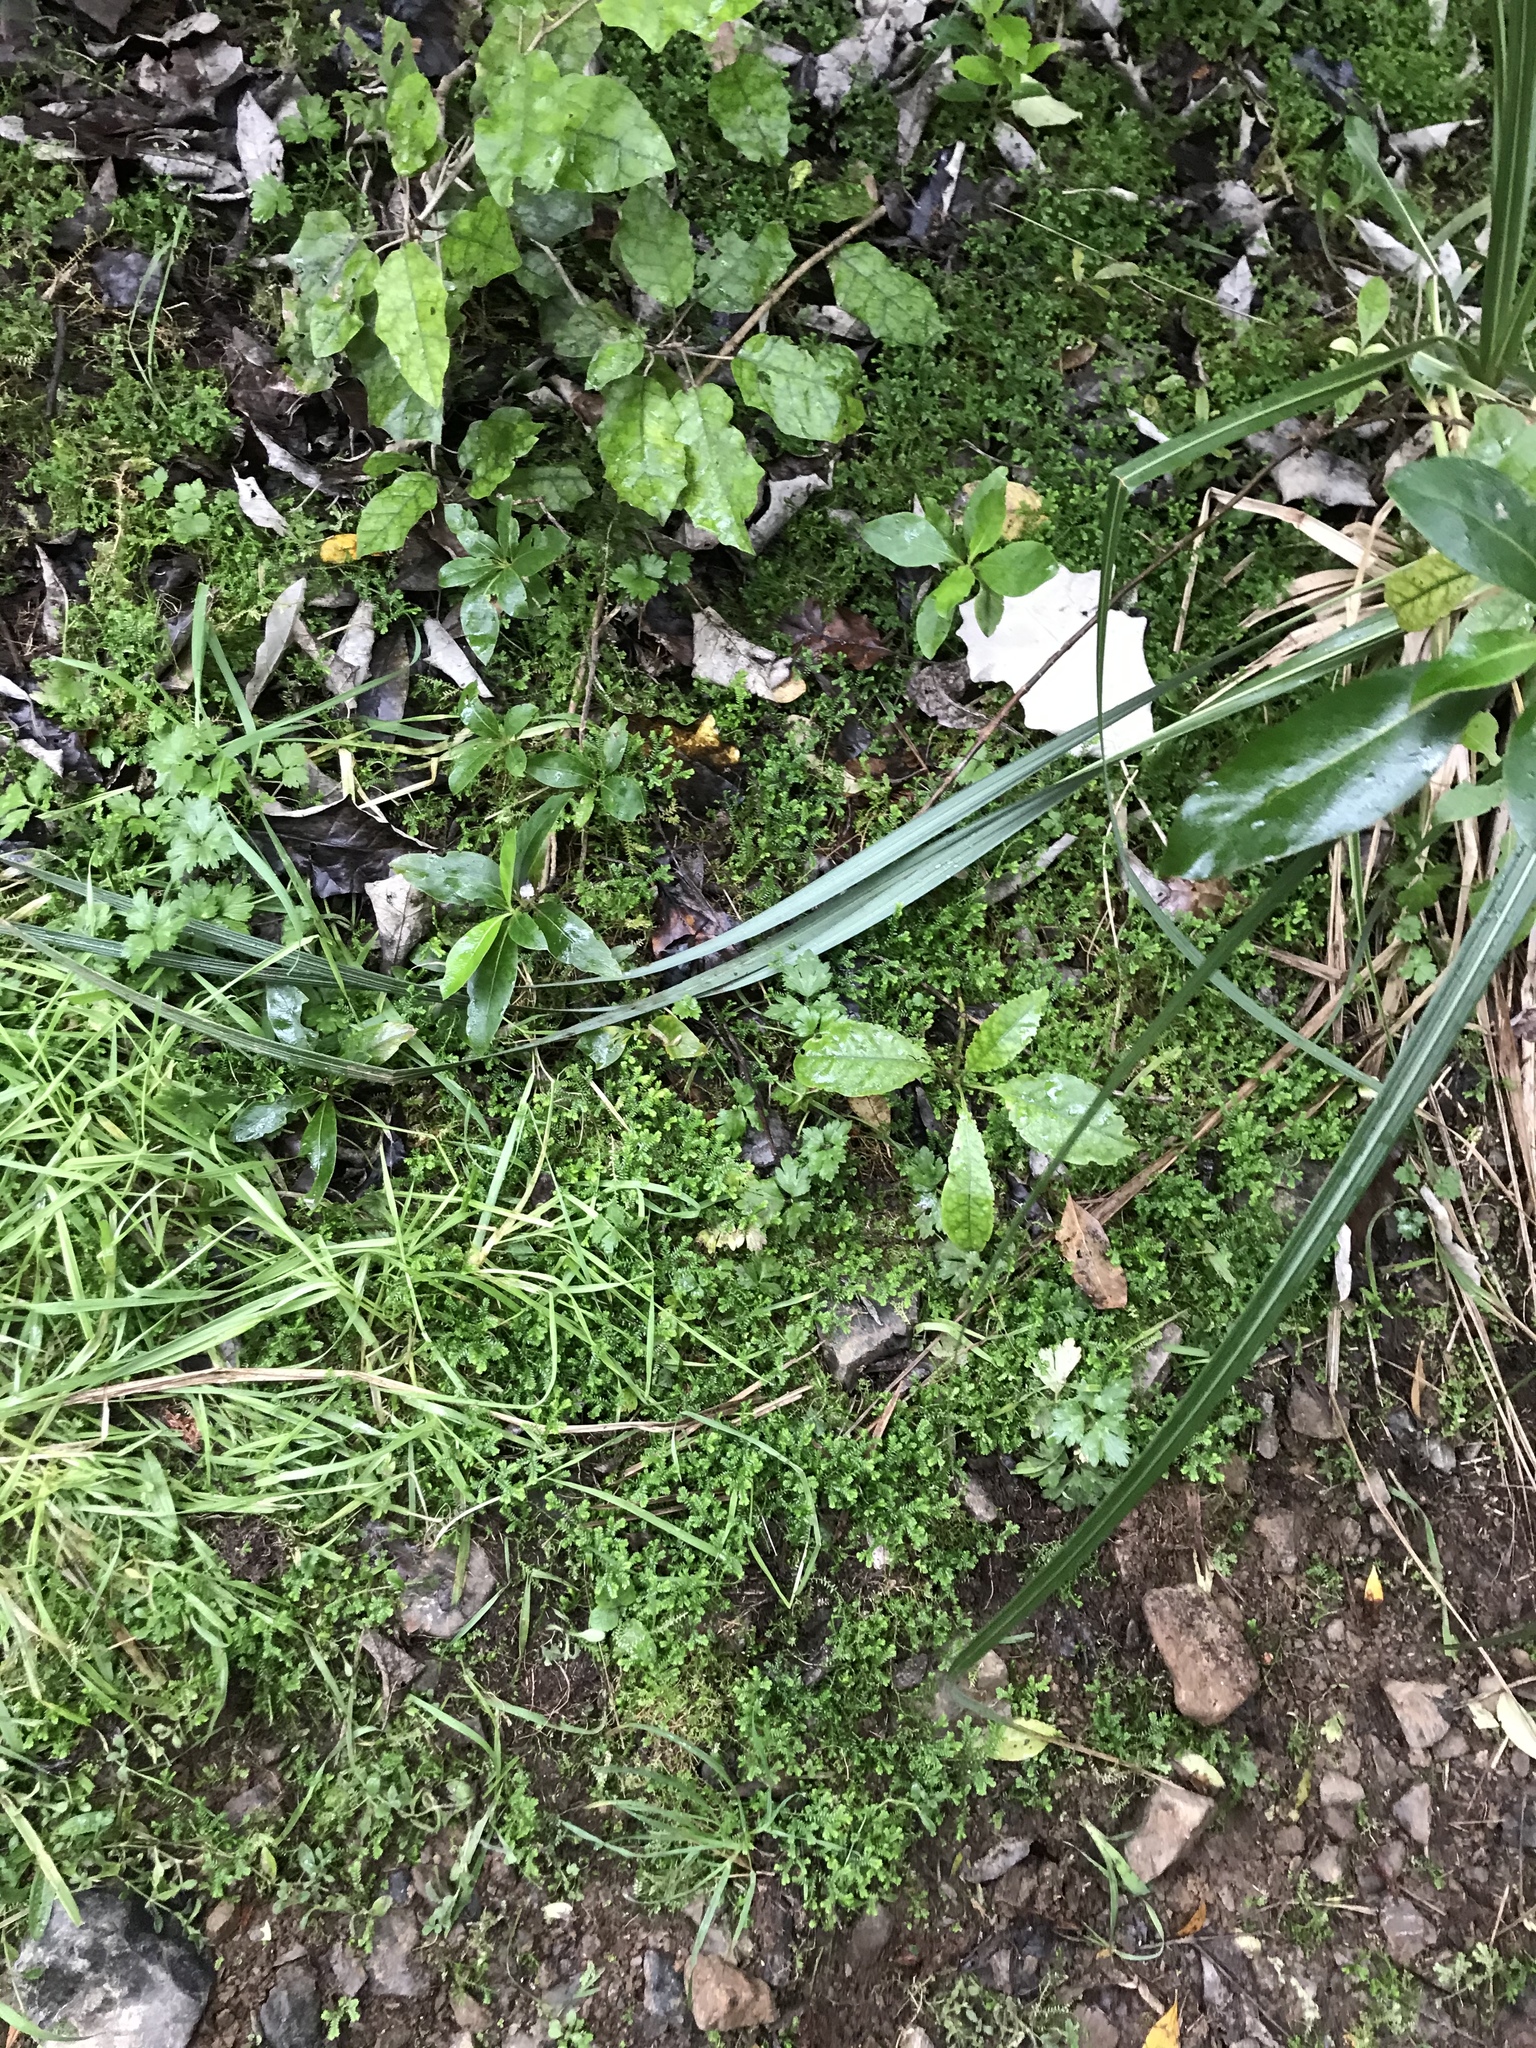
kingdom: Plantae
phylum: Tracheophyta
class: Lycopodiopsida
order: Selaginellales
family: Selaginellaceae
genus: Selaginella
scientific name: Selaginella kraussiana
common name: Krauss' spikemoss
